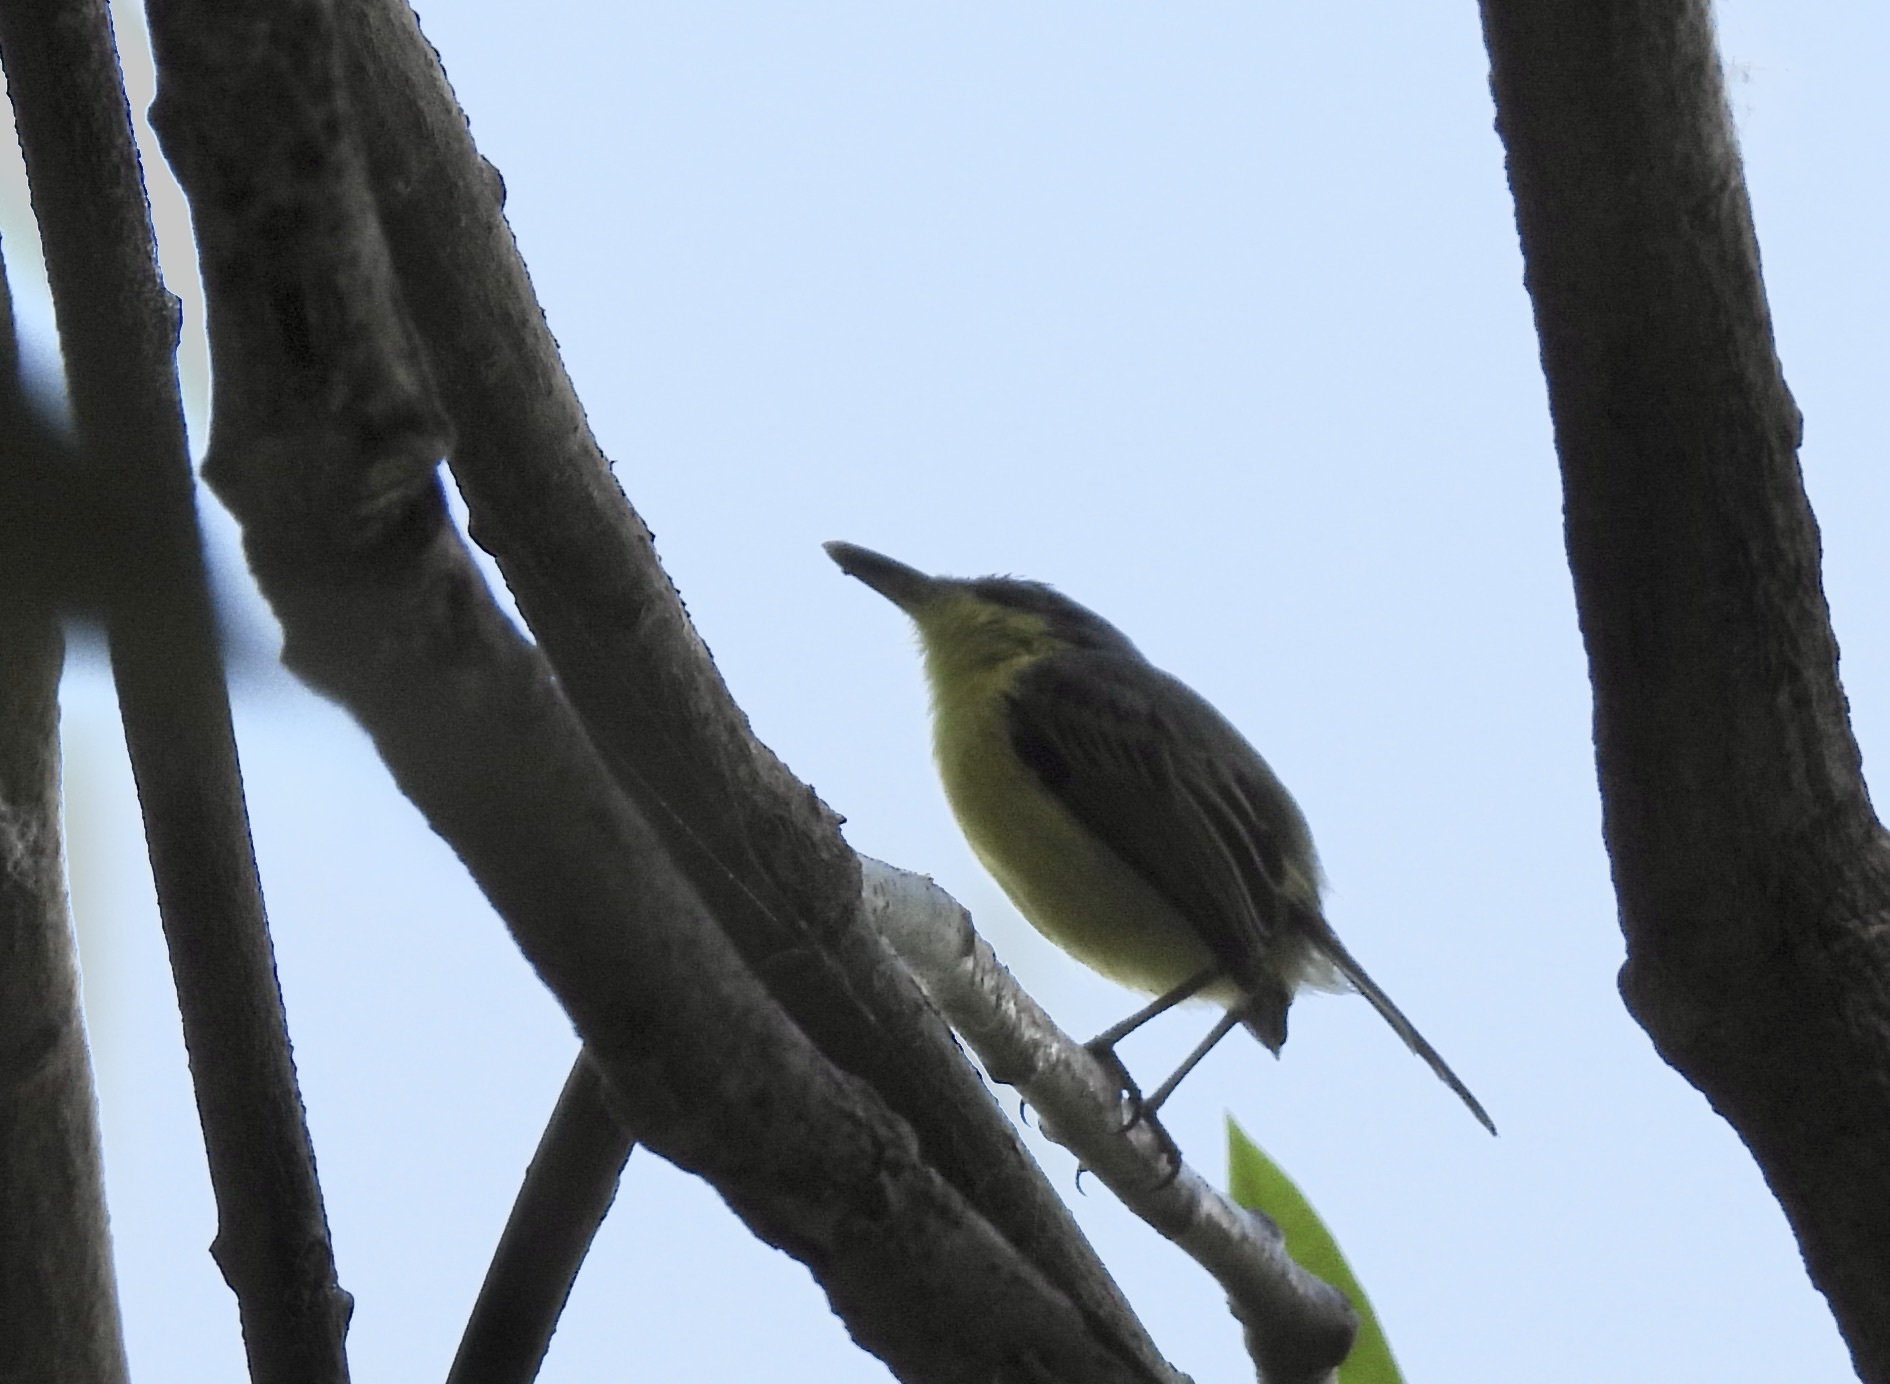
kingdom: Animalia
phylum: Chordata
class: Aves
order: Passeriformes
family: Tyrannidae
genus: Todirostrum
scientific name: Todirostrum cinereum
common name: Common tody-flycatcher
